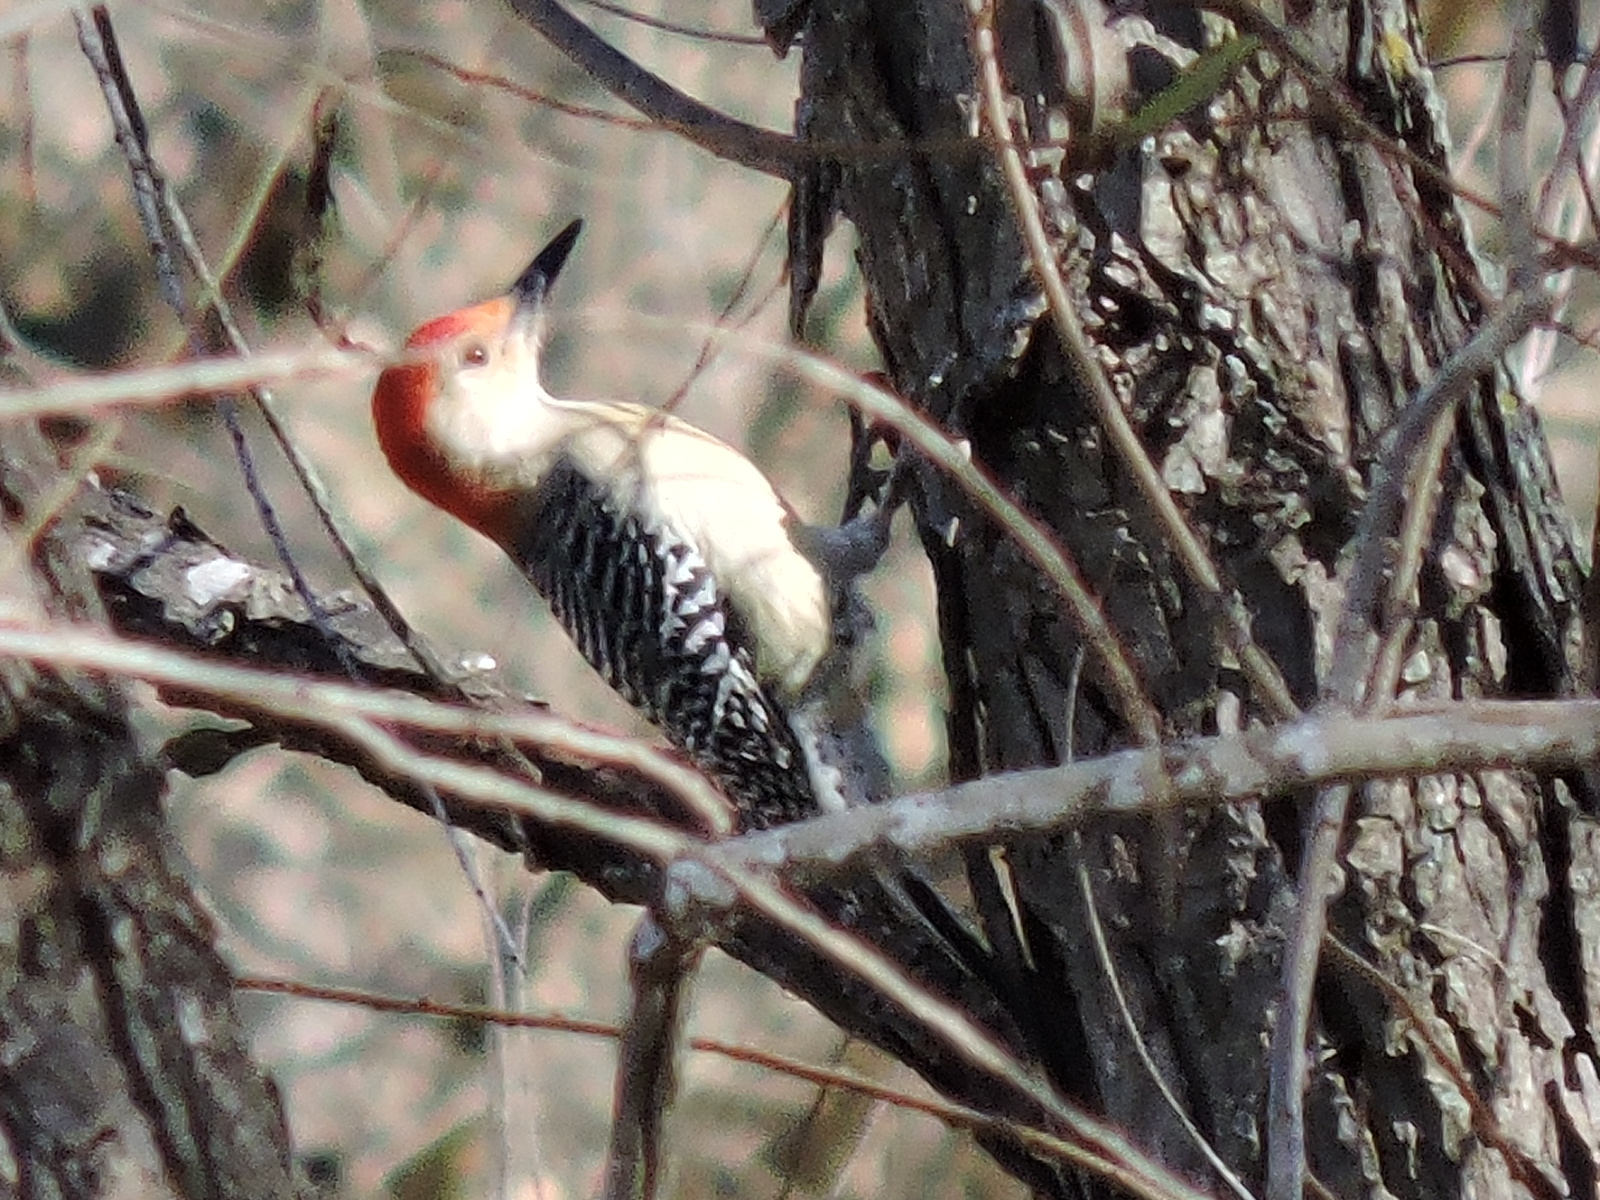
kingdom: Animalia
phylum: Chordata
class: Aves
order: Piciformes
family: Picidae
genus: Melanerpes
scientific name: Melanerpes carolinus
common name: Red-bellied woodpecker
